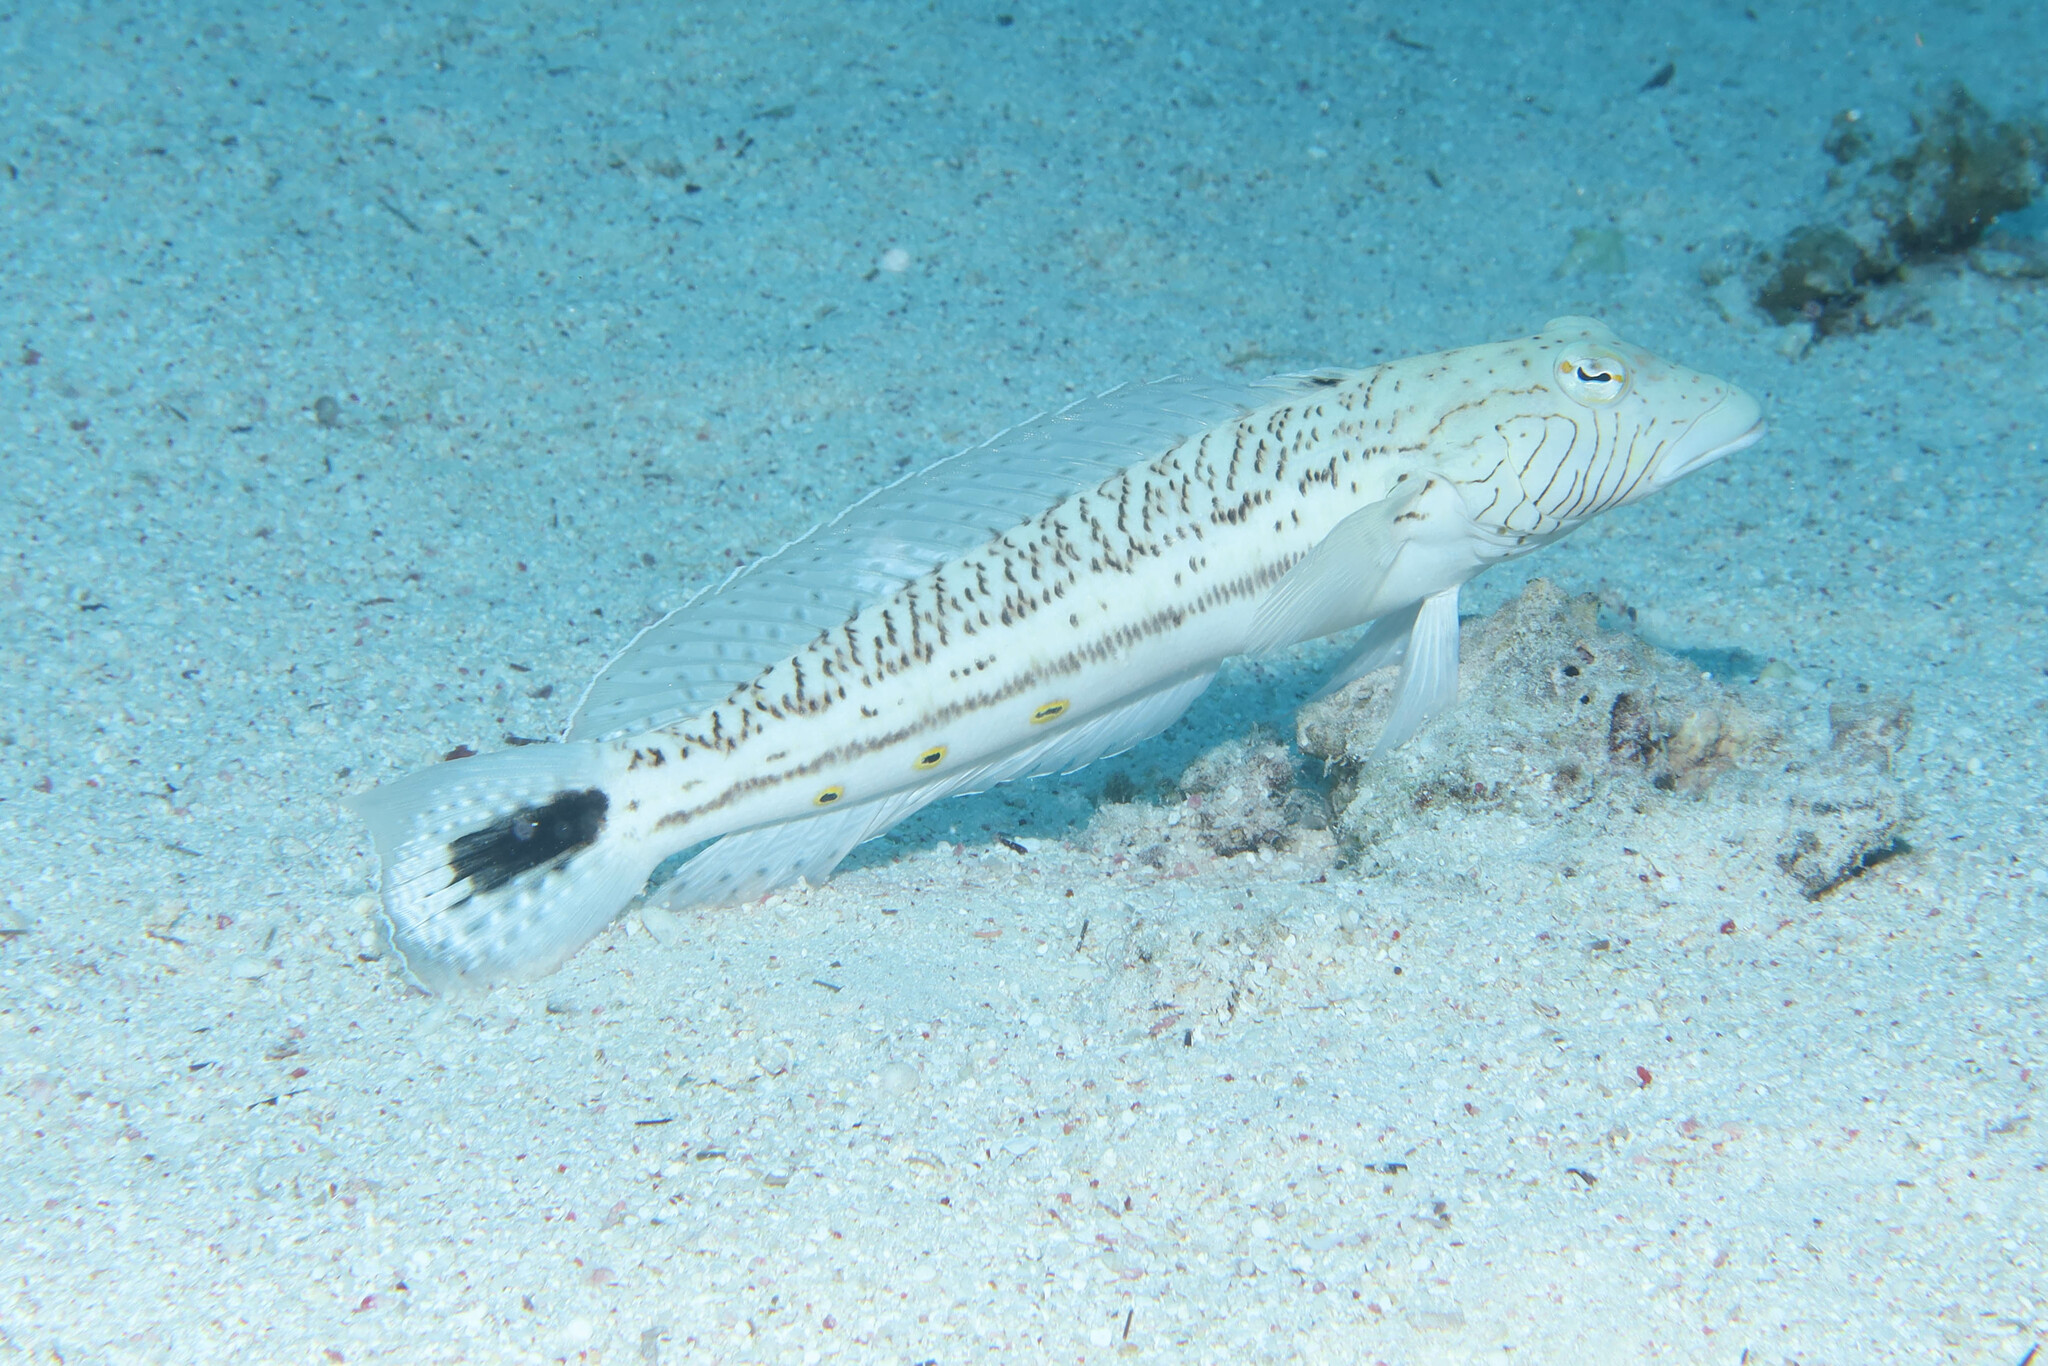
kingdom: Animalia
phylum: Chordata
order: Perciformes
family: Pinguipedidae
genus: Parapercis
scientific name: Parapercis hexophtalma
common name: Speckled sandperch
